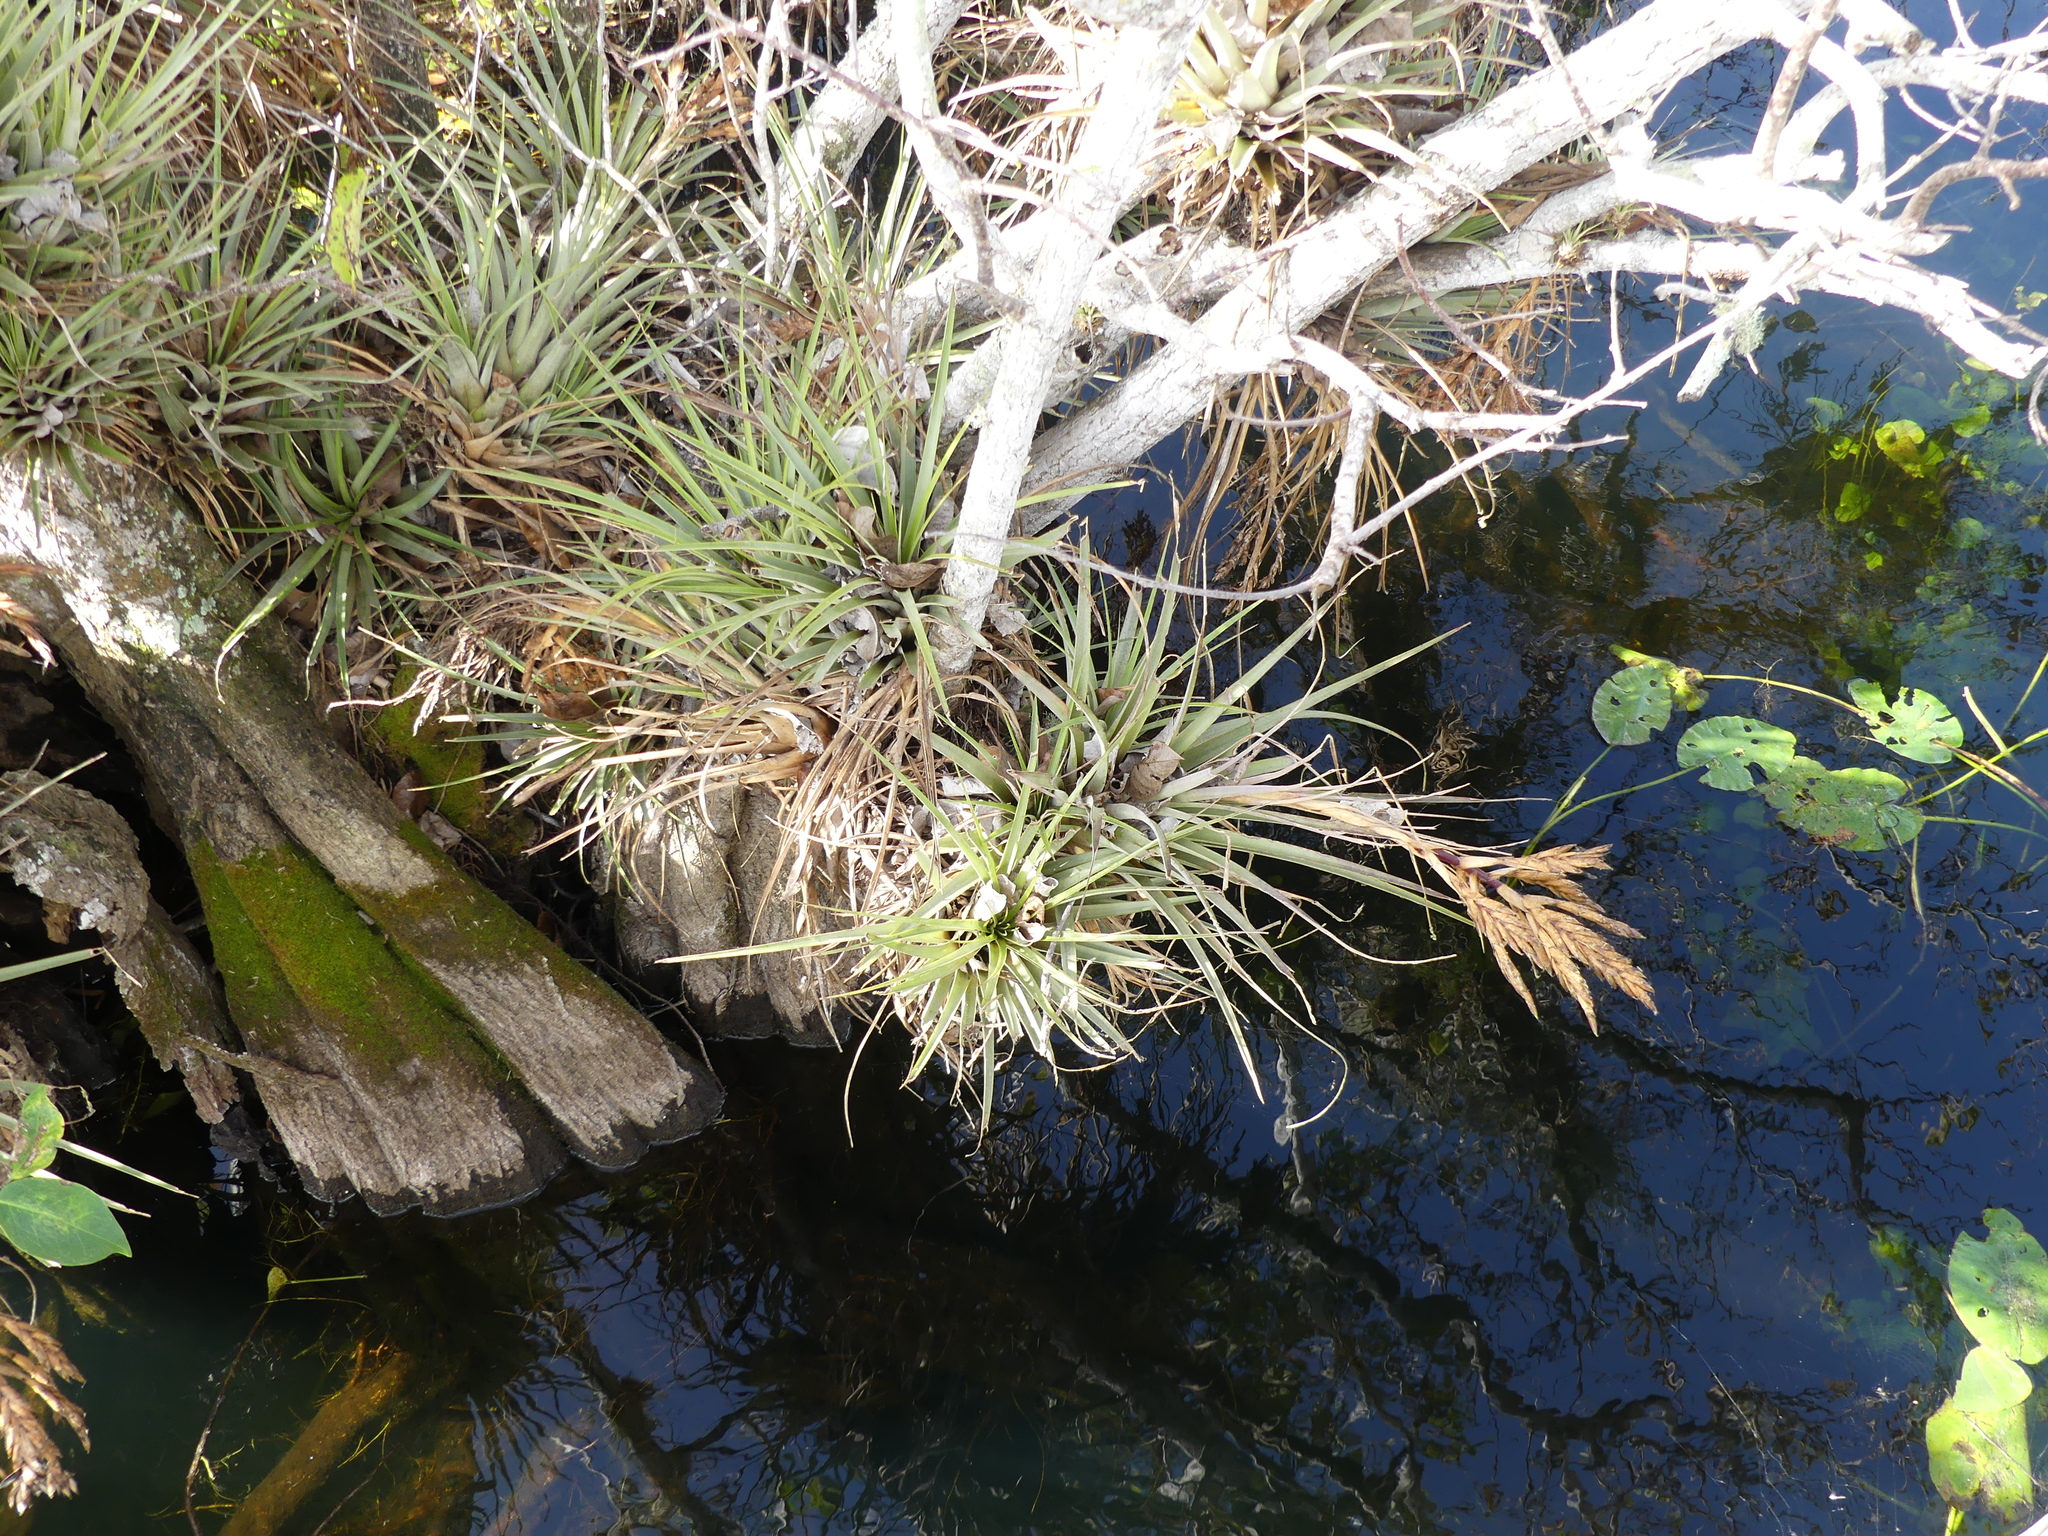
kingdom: Plantae
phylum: Tracheophyta
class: Liliopsida
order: Poales
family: Bromeliaceae
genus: Tillandsia
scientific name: Tillandsia fasciculata
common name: Giant airplant
